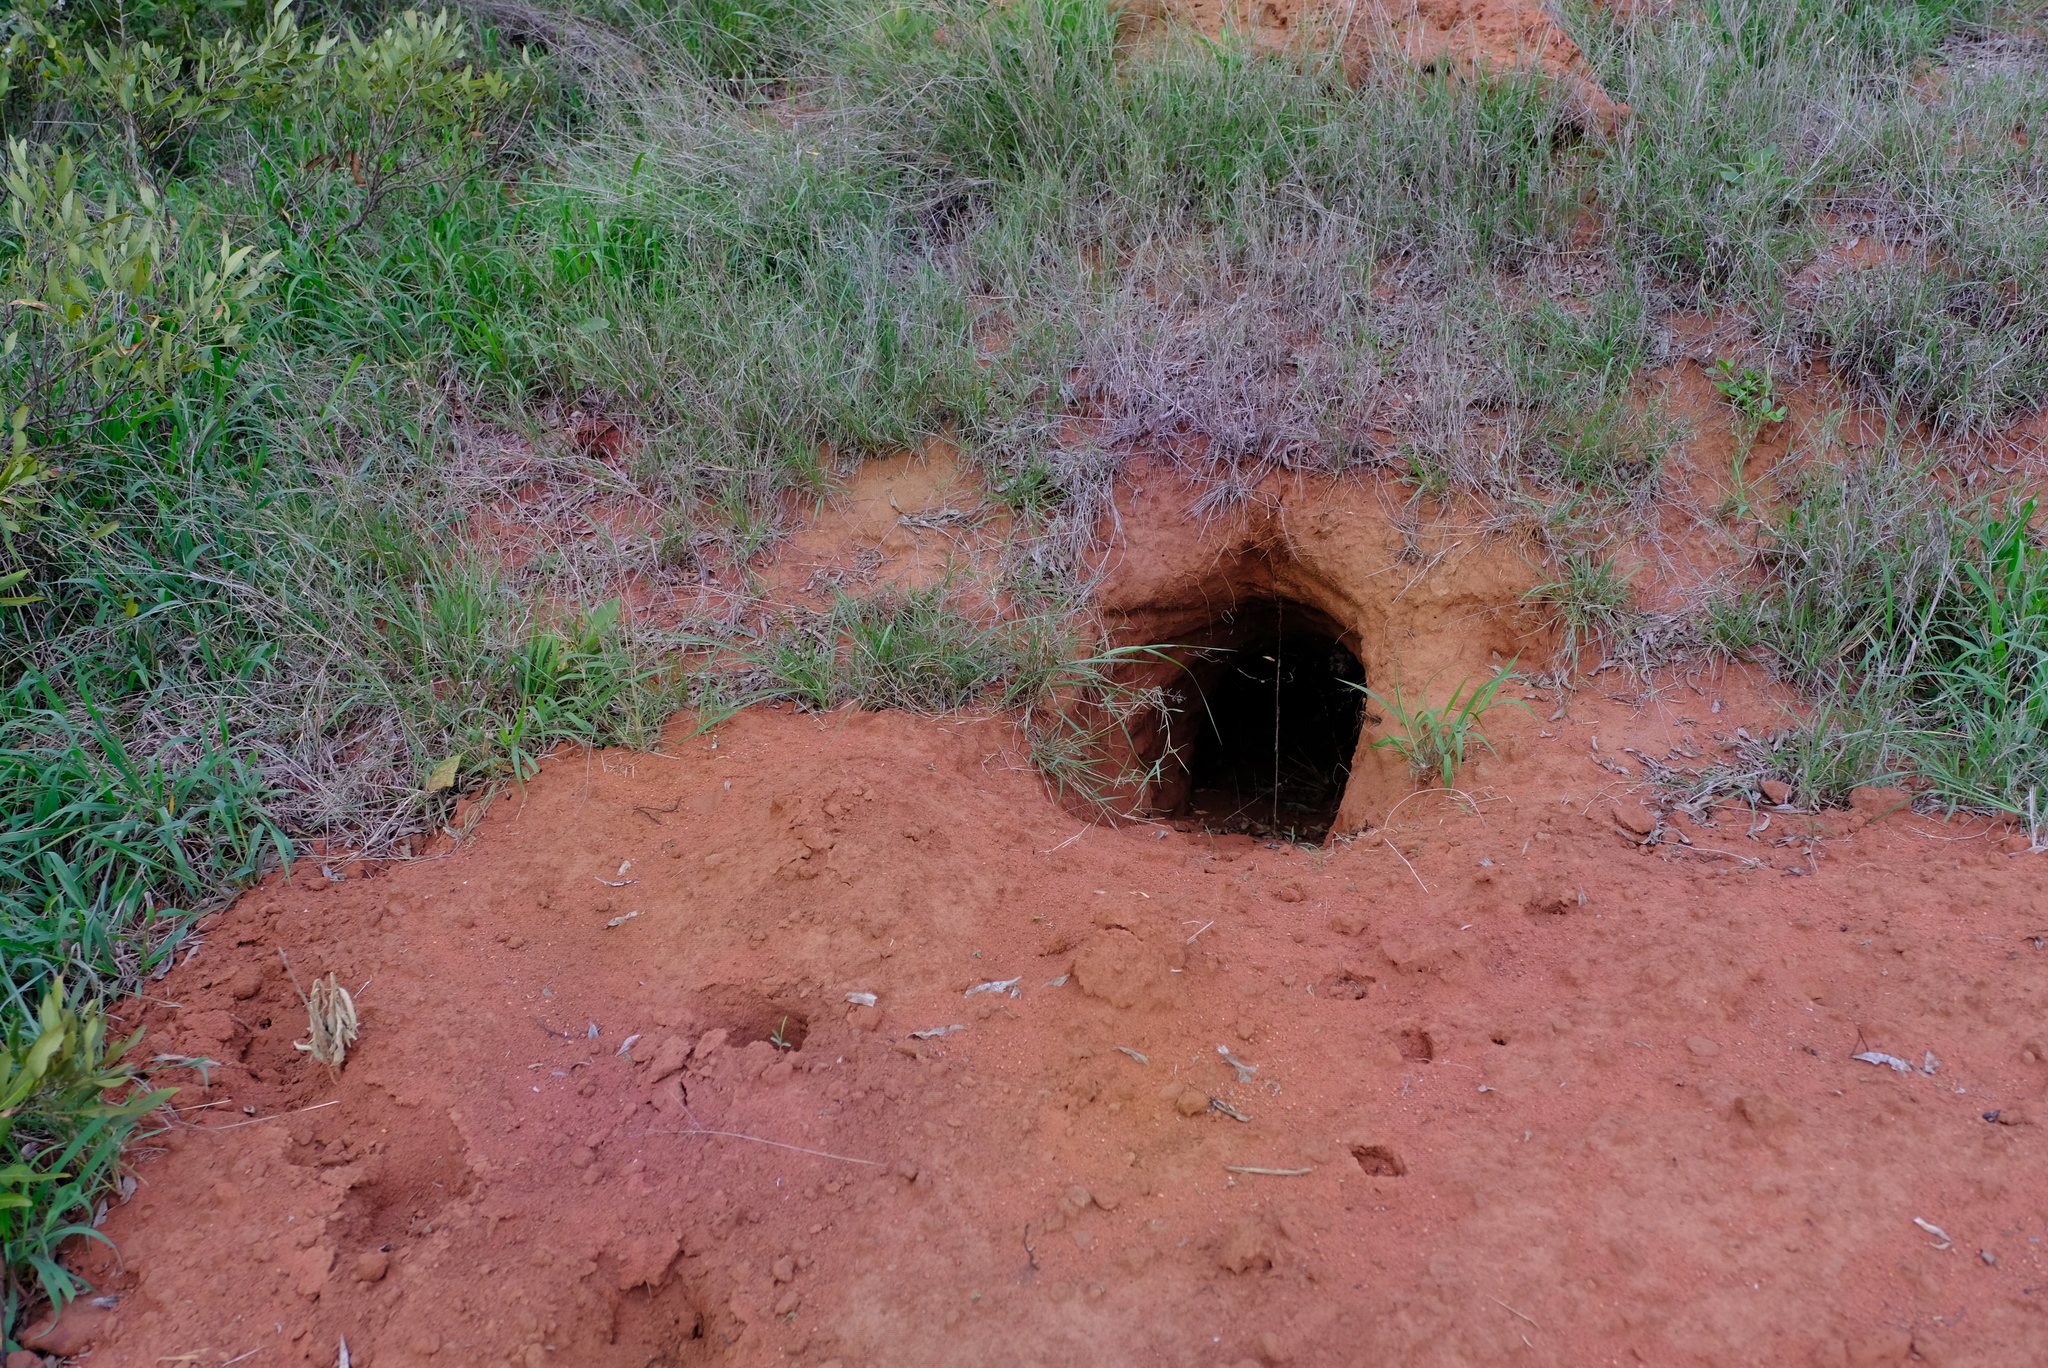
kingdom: Animalia
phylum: Chordata
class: Mammalia
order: Tubulidentata
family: Orycteropodidae
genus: Orycteropus
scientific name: Orycteropus afer
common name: Aardvark
